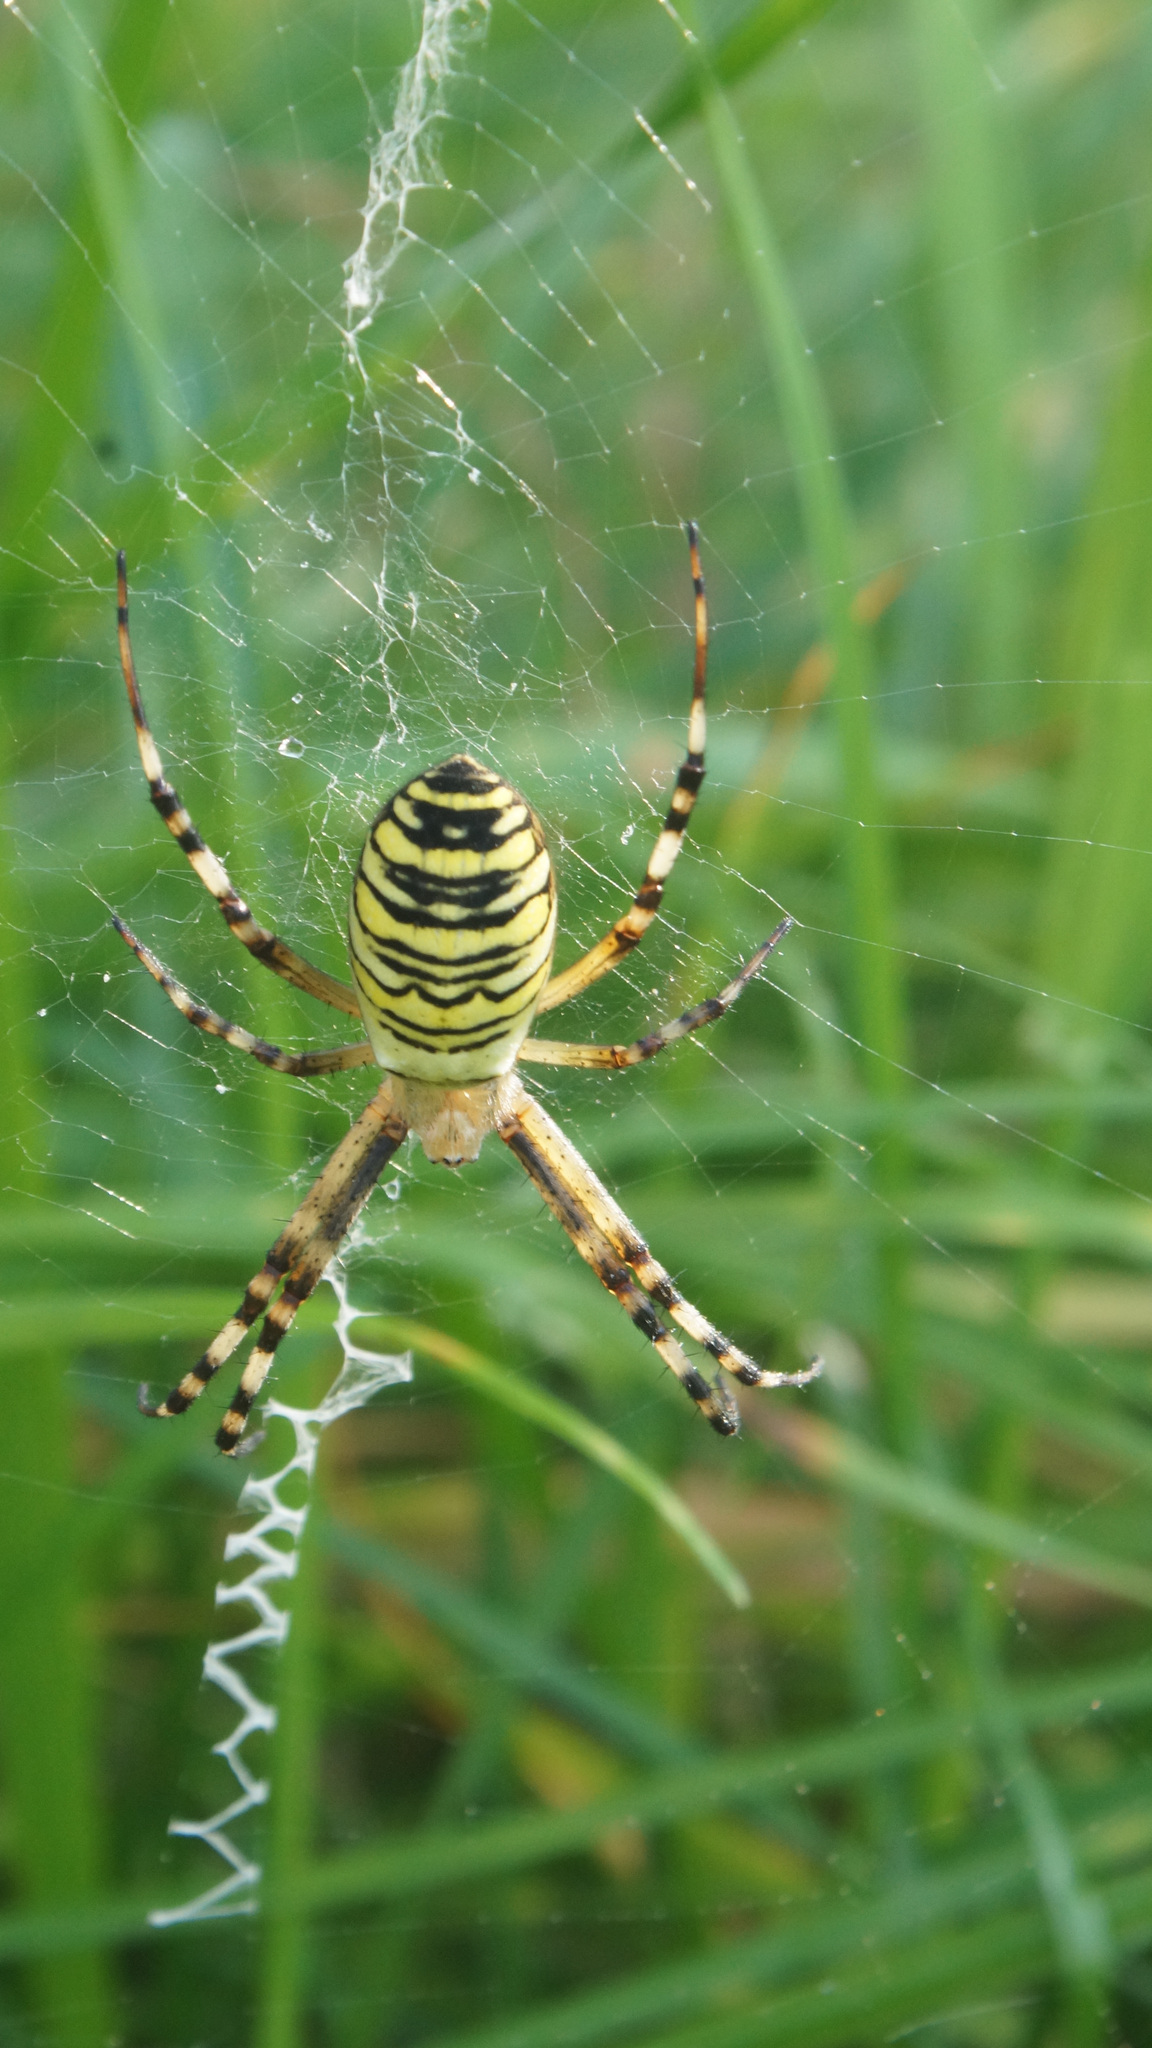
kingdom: Animalia
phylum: Arthropoda
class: Arachnida
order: Araneae
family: Araneidae
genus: Argiope
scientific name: Argiope bruennichi
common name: Wasp spider
